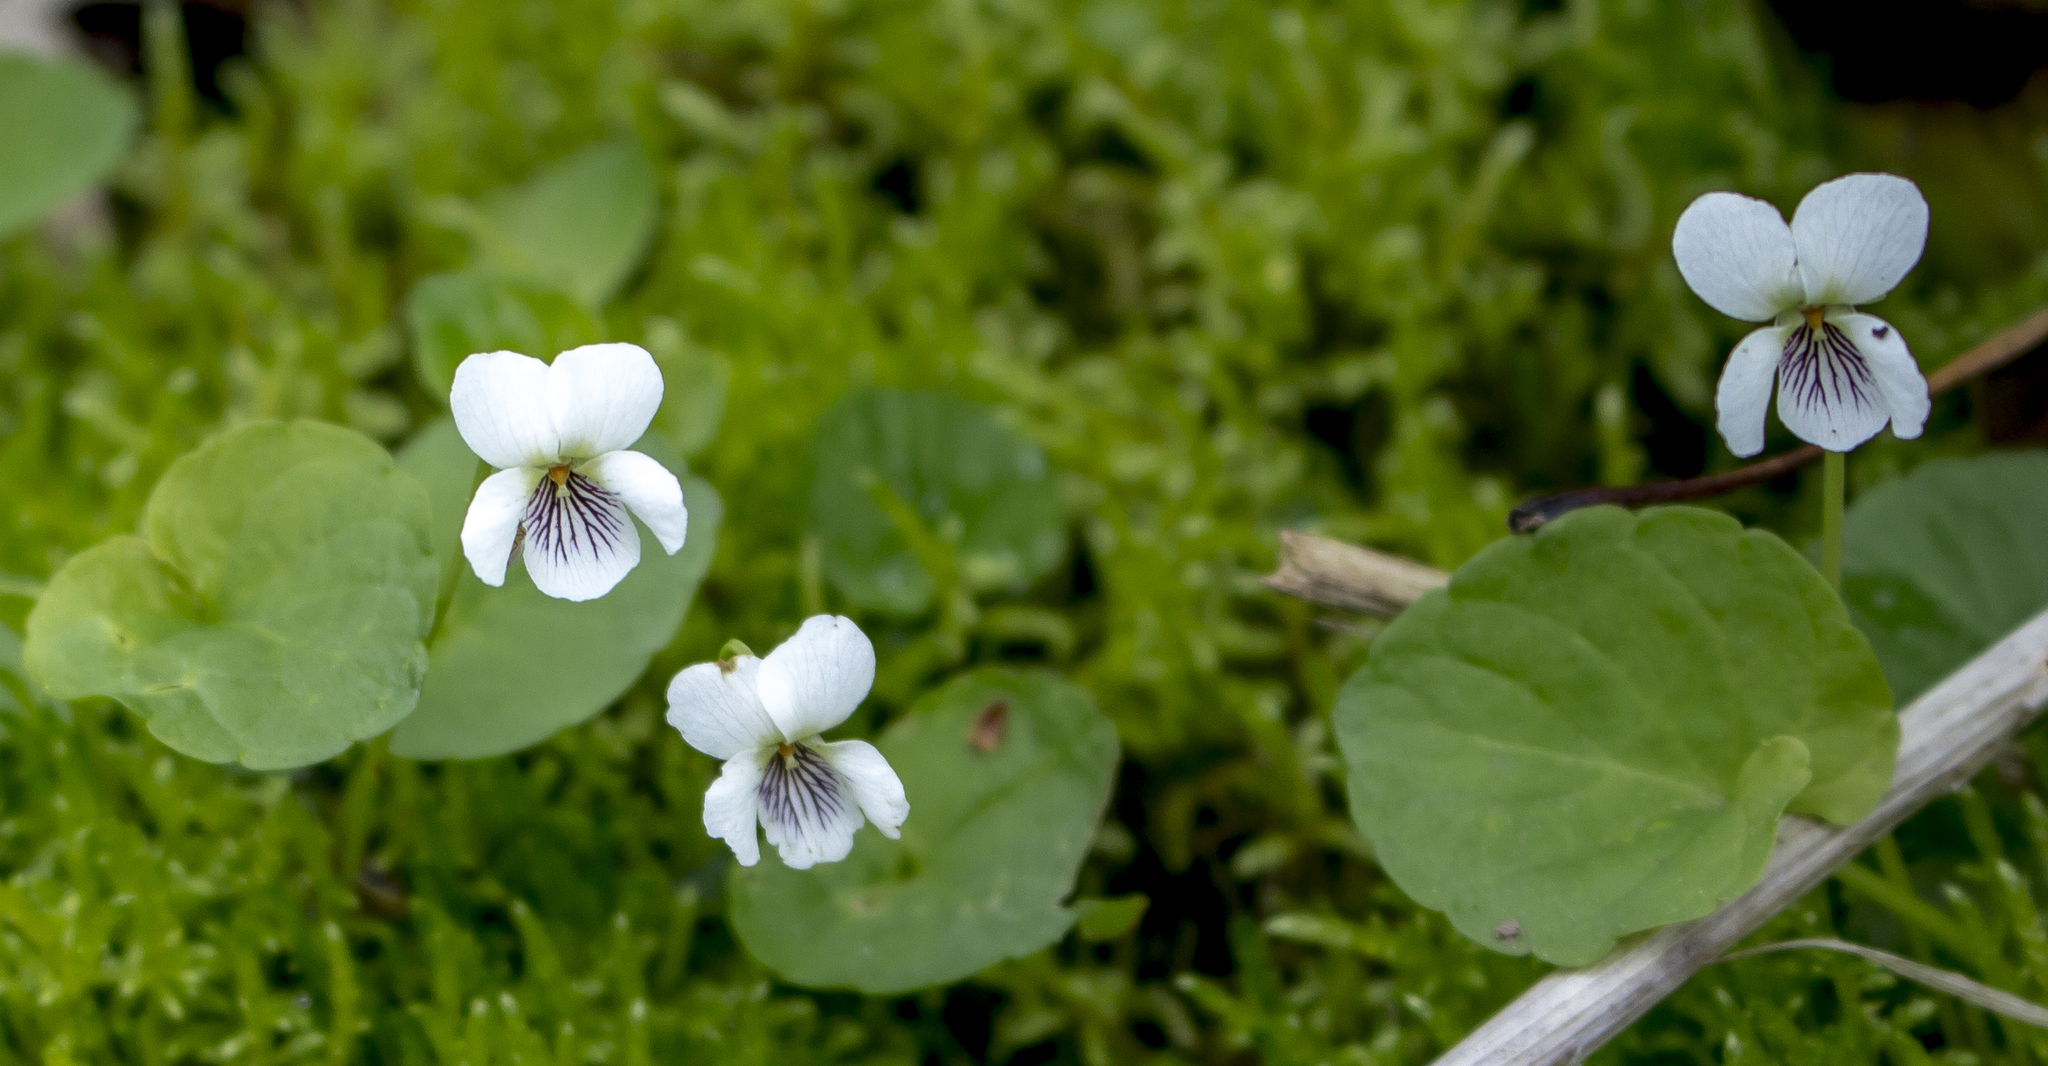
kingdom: Plantae
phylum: Tracheophyta
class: Magnoliopsida
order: Malpighiales
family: Violaceae
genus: Viola
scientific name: Viola minuscula
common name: Northern white violet
